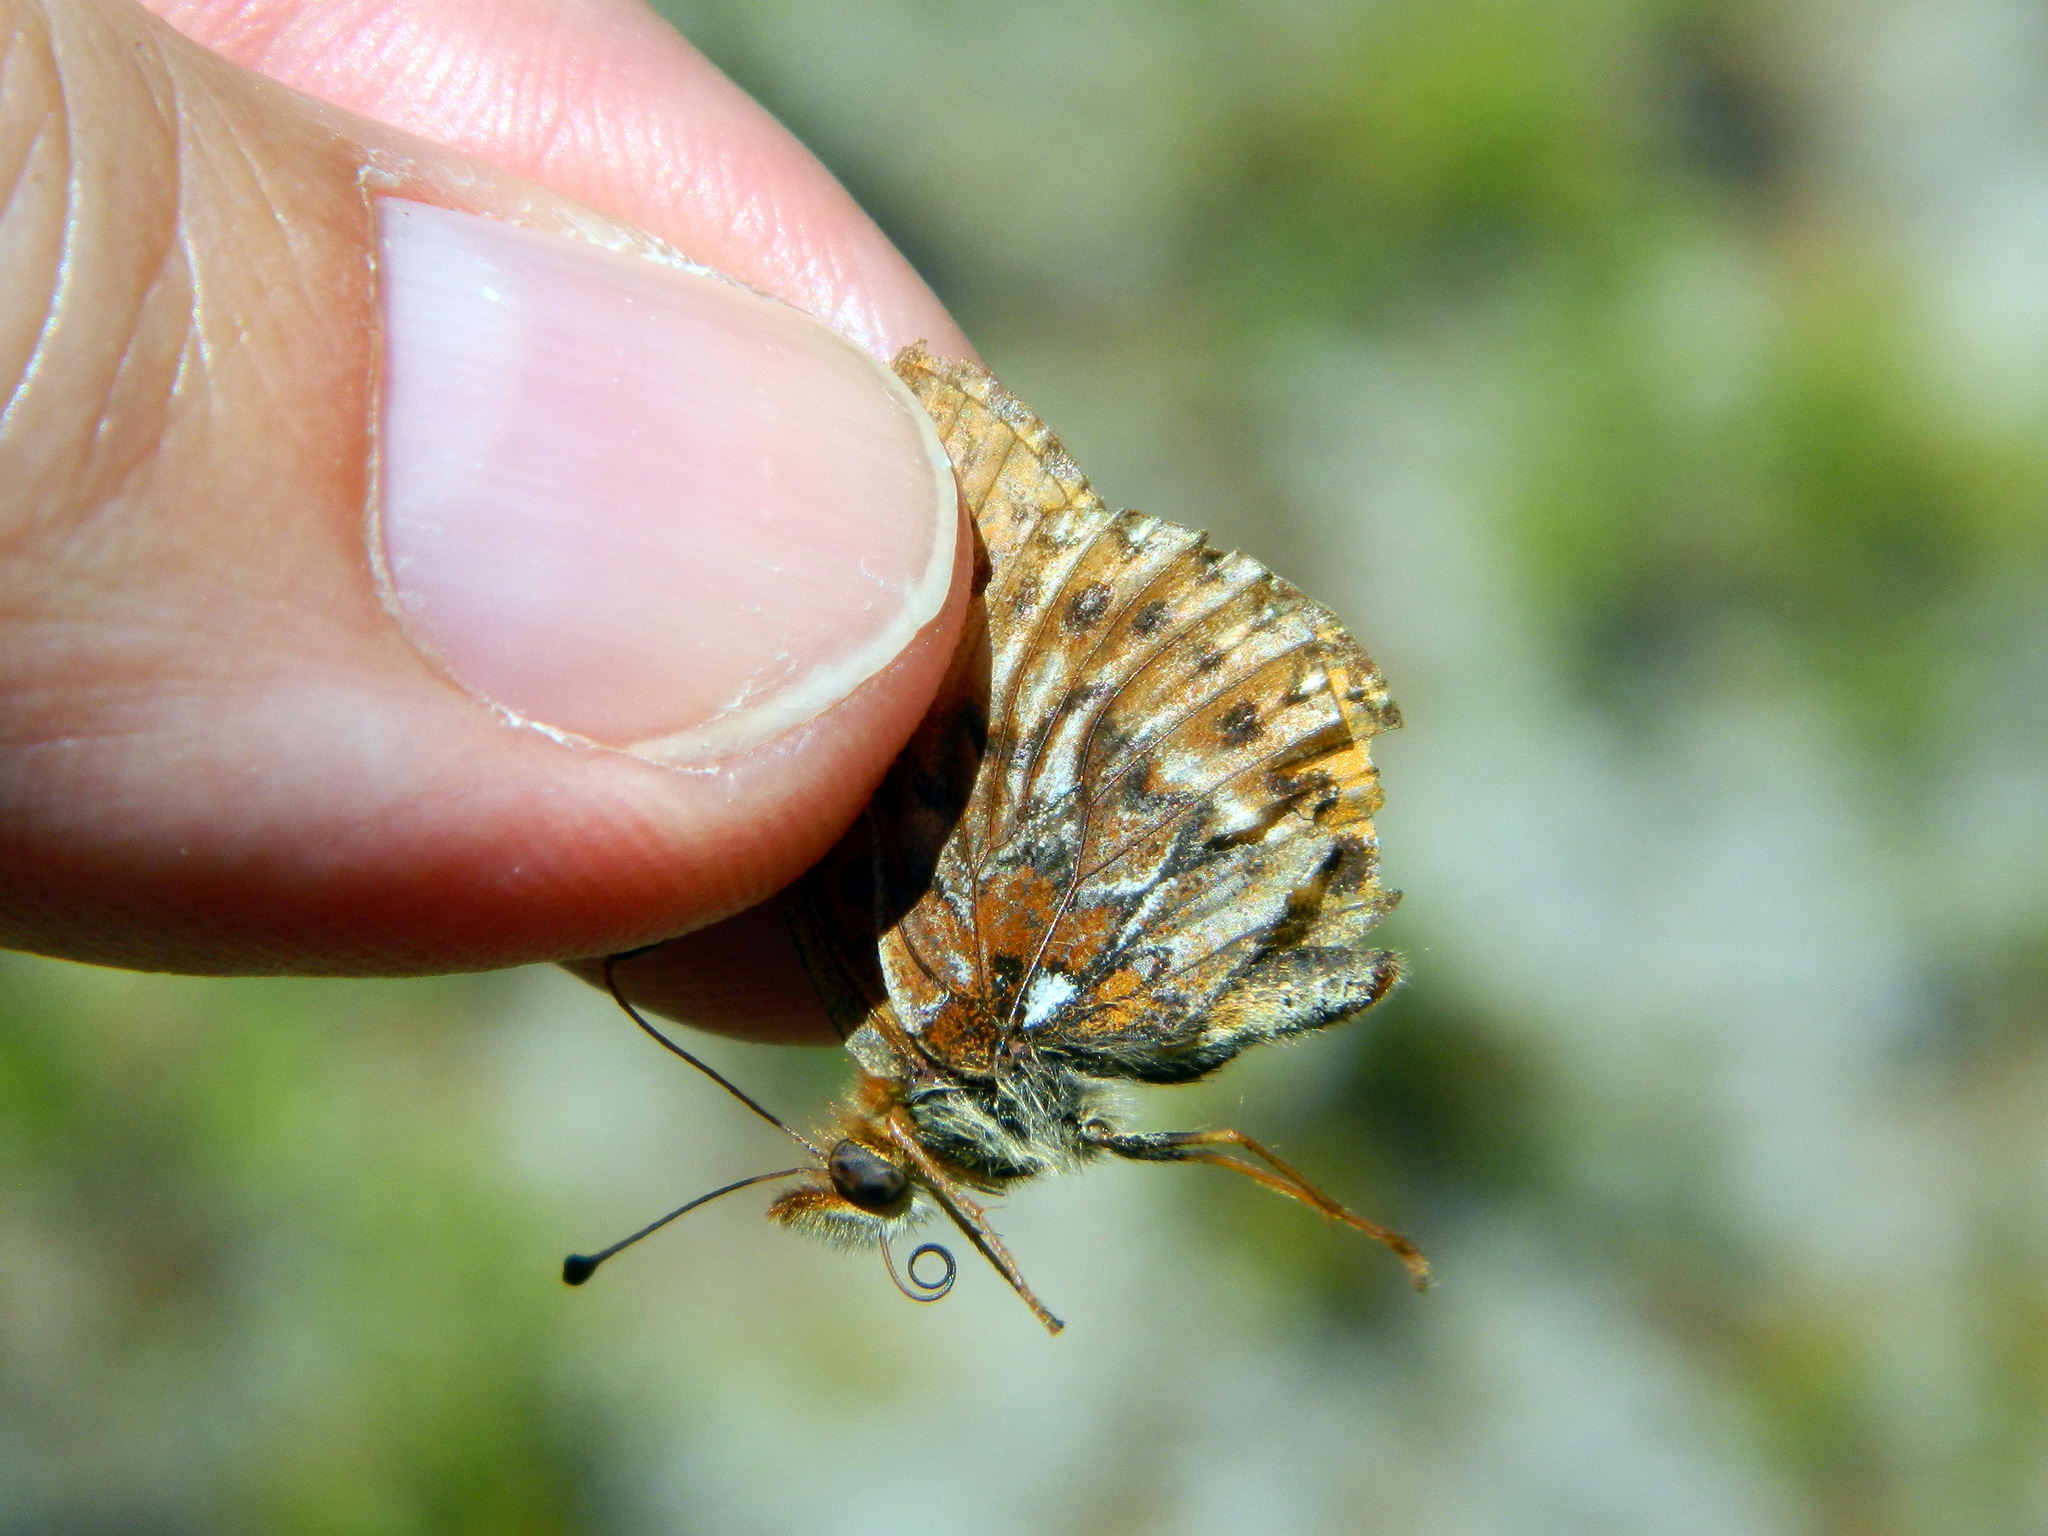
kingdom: Animalia
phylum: Arthropoda
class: Insecta
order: Lepidoptera
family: Nymphalidae
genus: Boloria
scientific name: Boloria freija
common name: Freija fritillary
